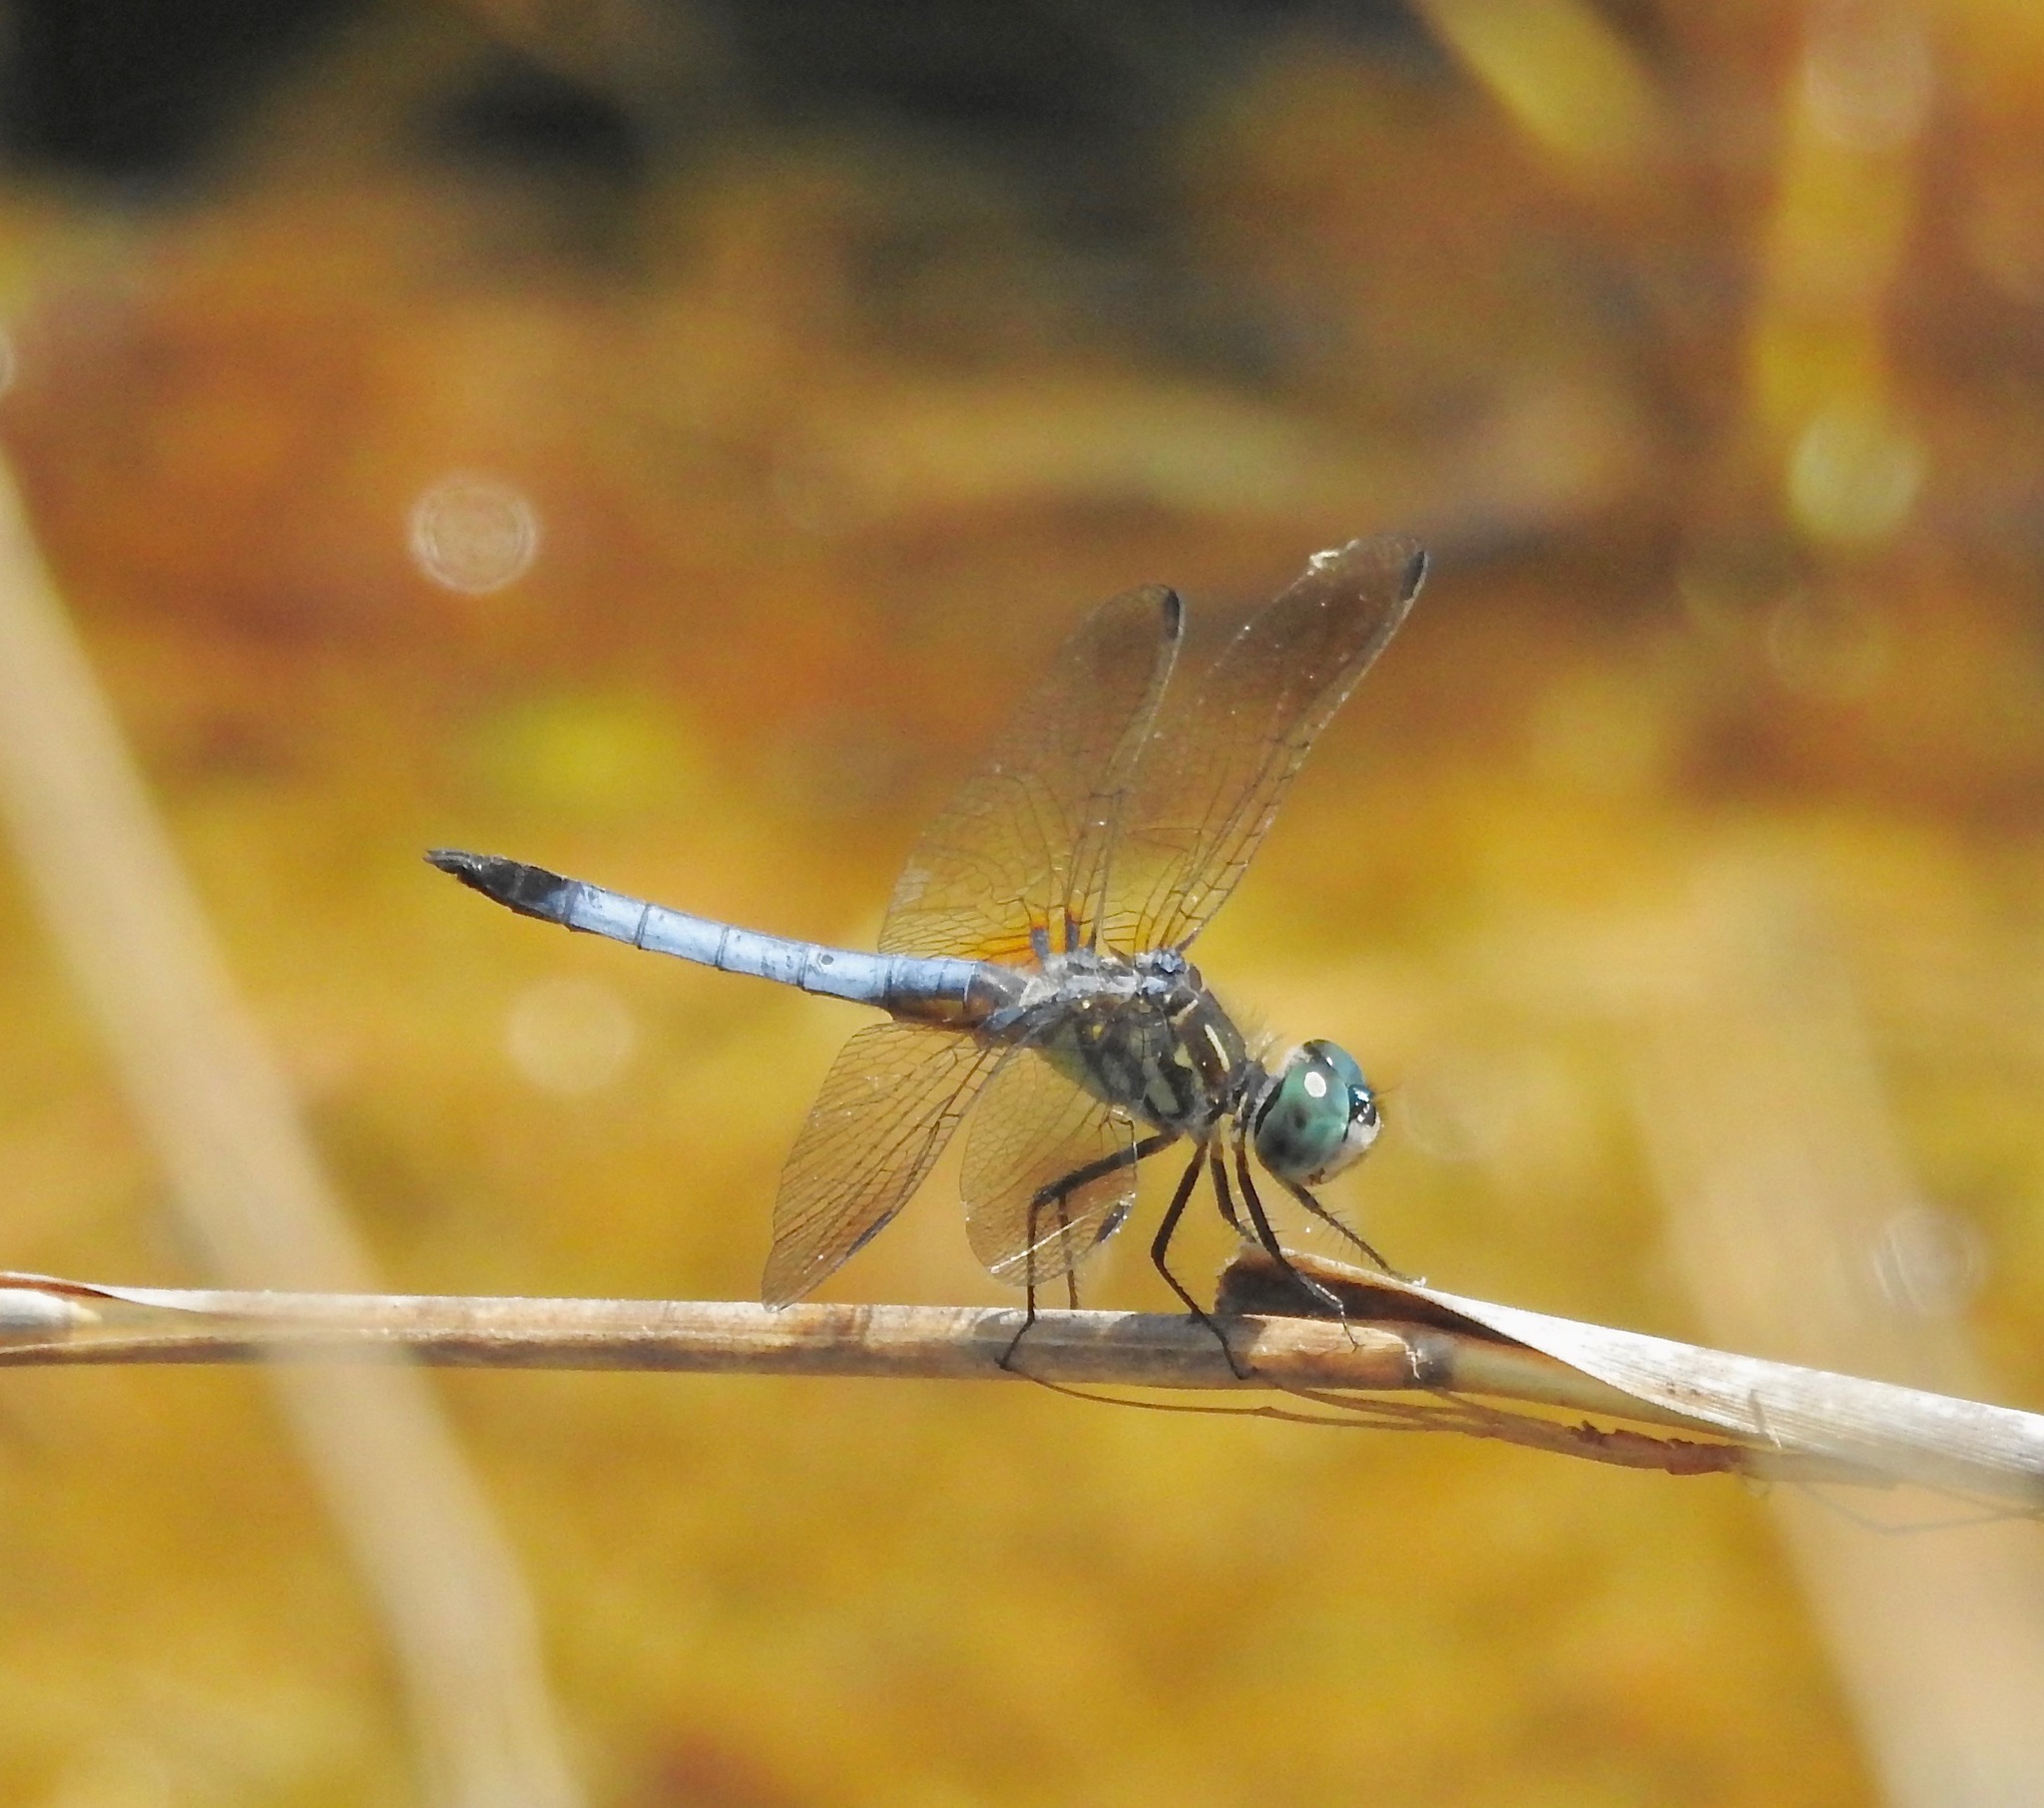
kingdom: Animalia
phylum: Arthropoda
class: Insecta
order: Odonata
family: Libellulidae
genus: Pachydiplax
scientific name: Pachydiplax longipennis
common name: Blue dasher
